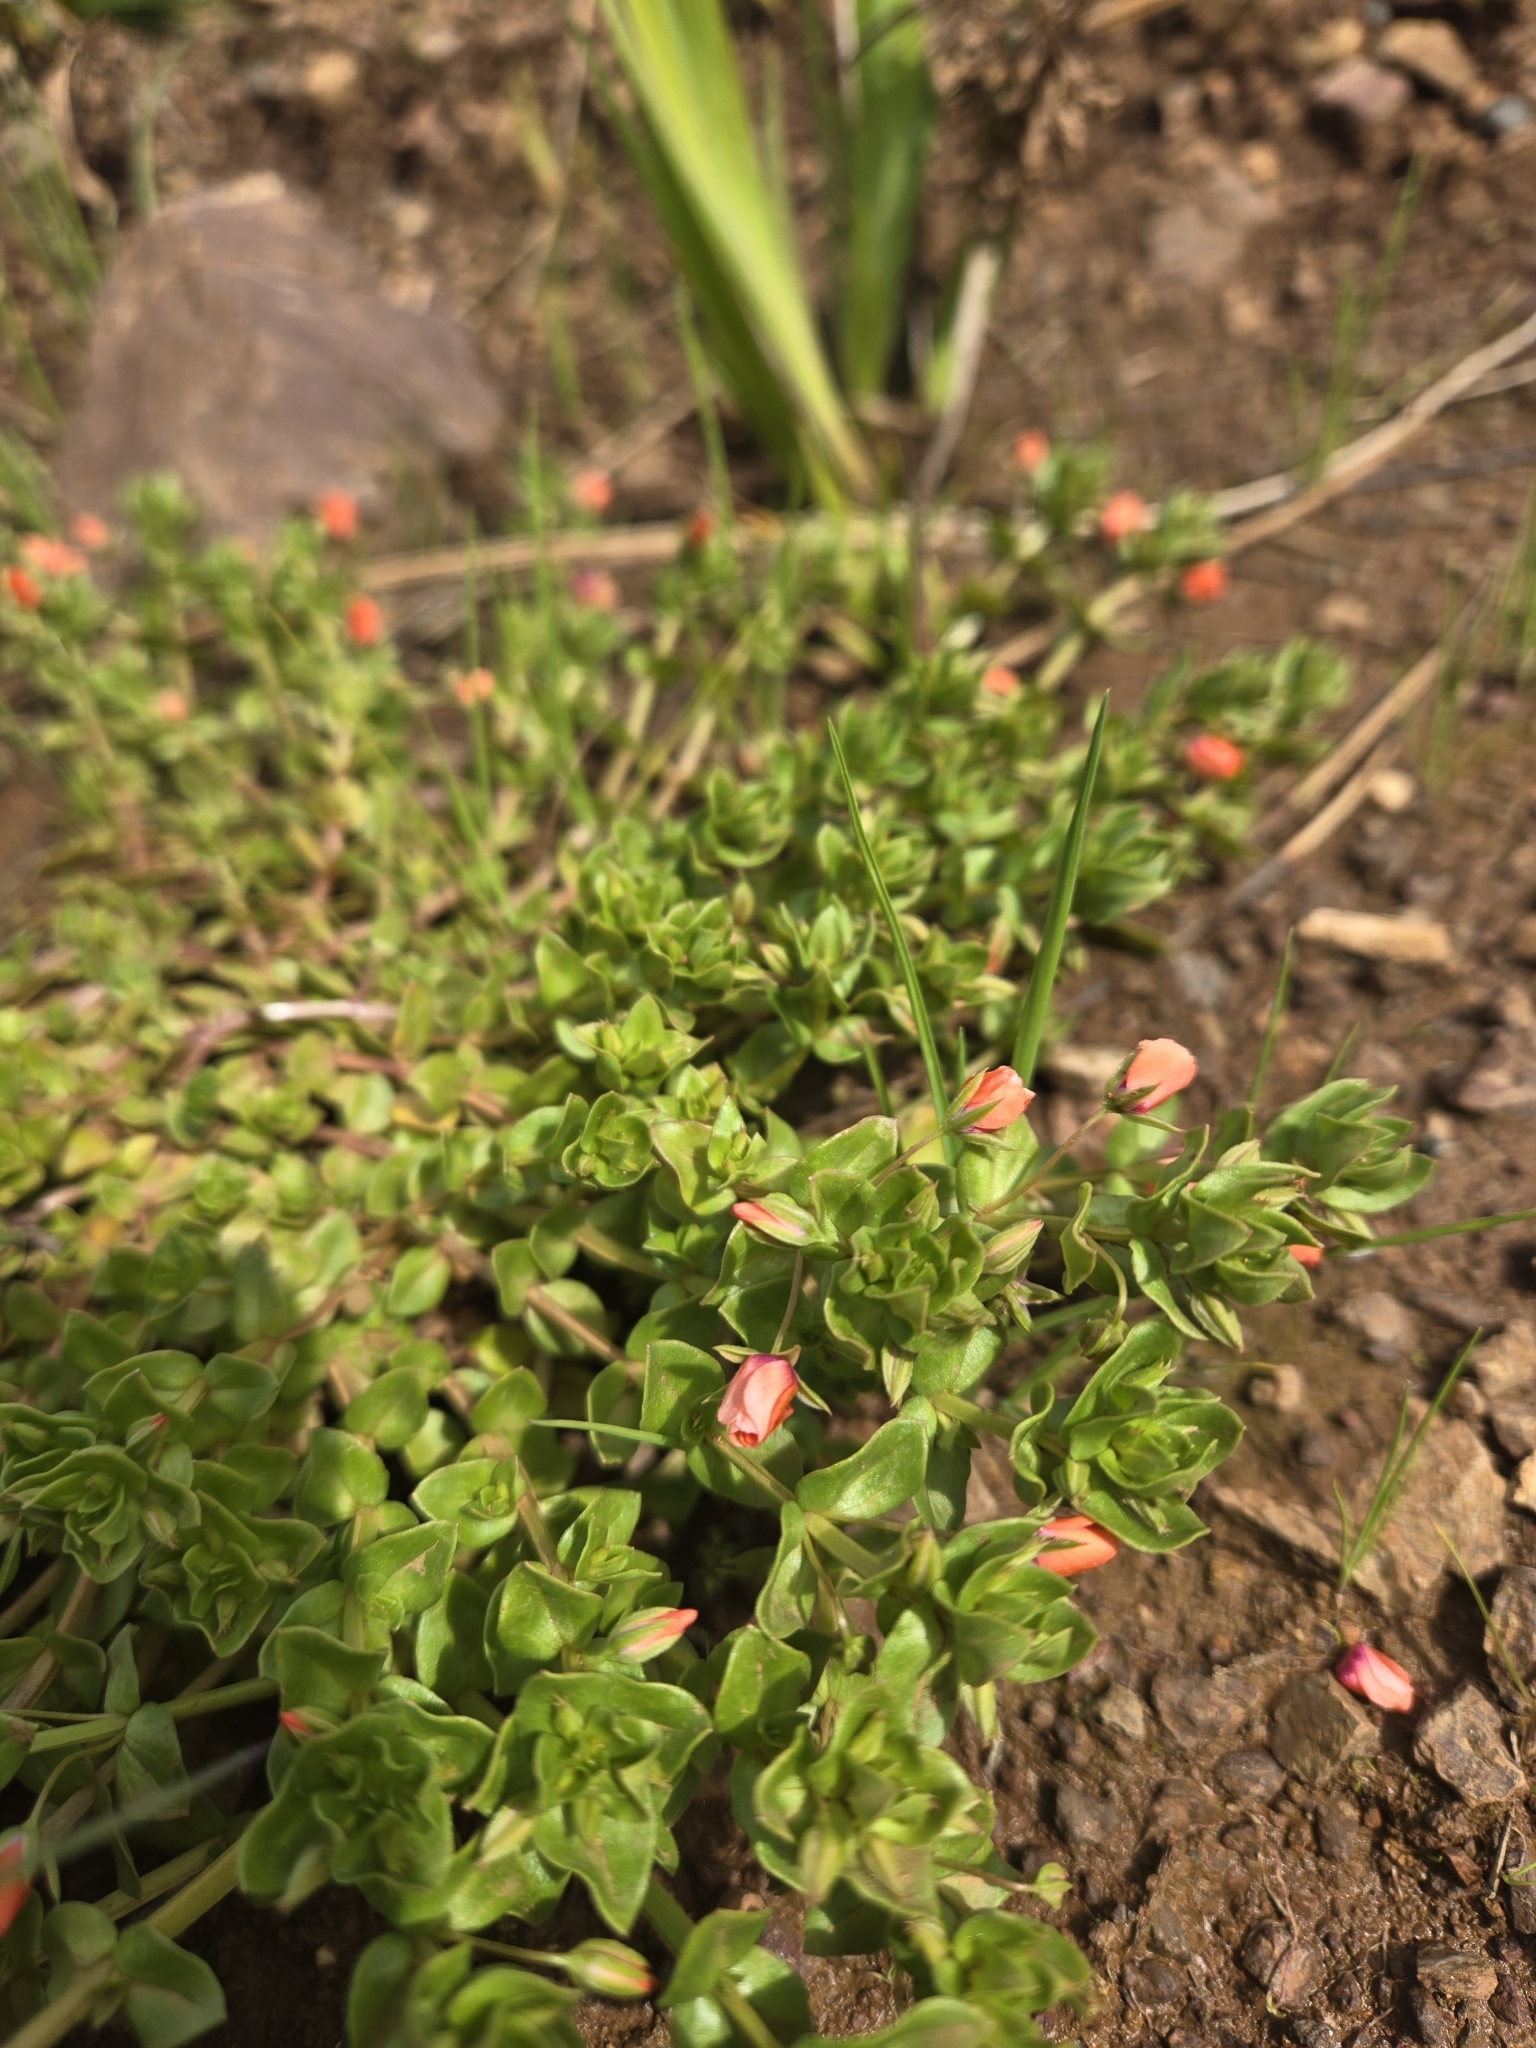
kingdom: Plantae
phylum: Tracheophyta
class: Magnoliopsida
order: Ericales
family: Primulaceae
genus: Lysimachia
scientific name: Lysimachia arvensis
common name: Scarlet pimpernel
